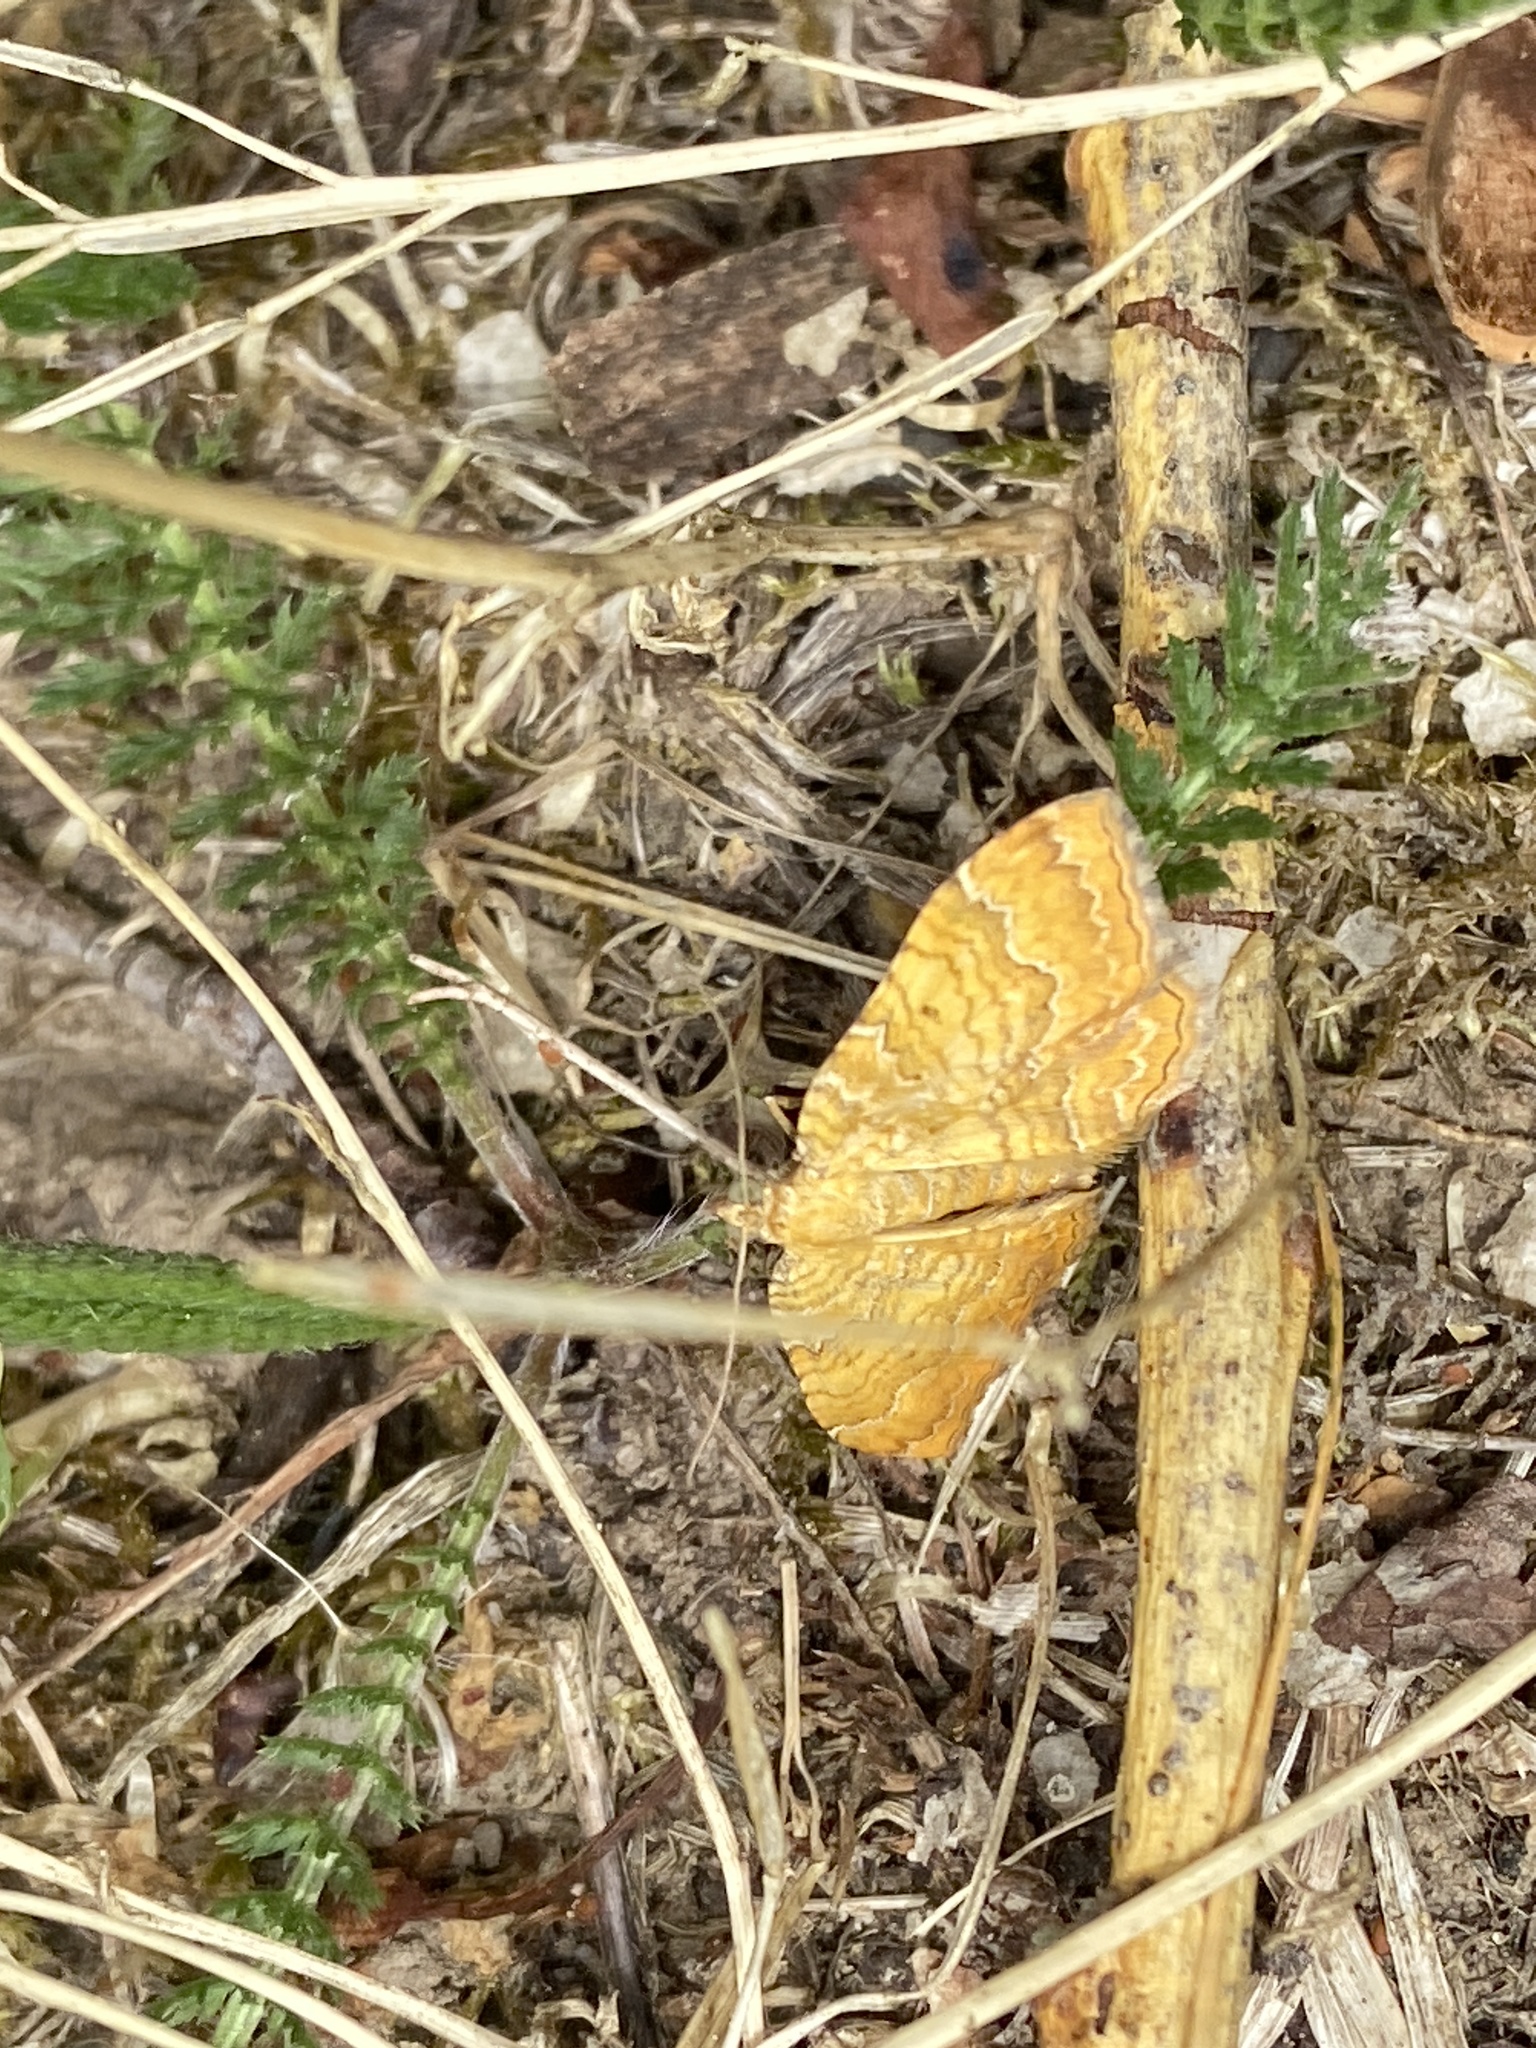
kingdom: Animalia
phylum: Arthropoda
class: Insecta
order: Lepidoptera
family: Geometridae
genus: Camptogramma
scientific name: Camptogramma bilineata
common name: Yellow shell
